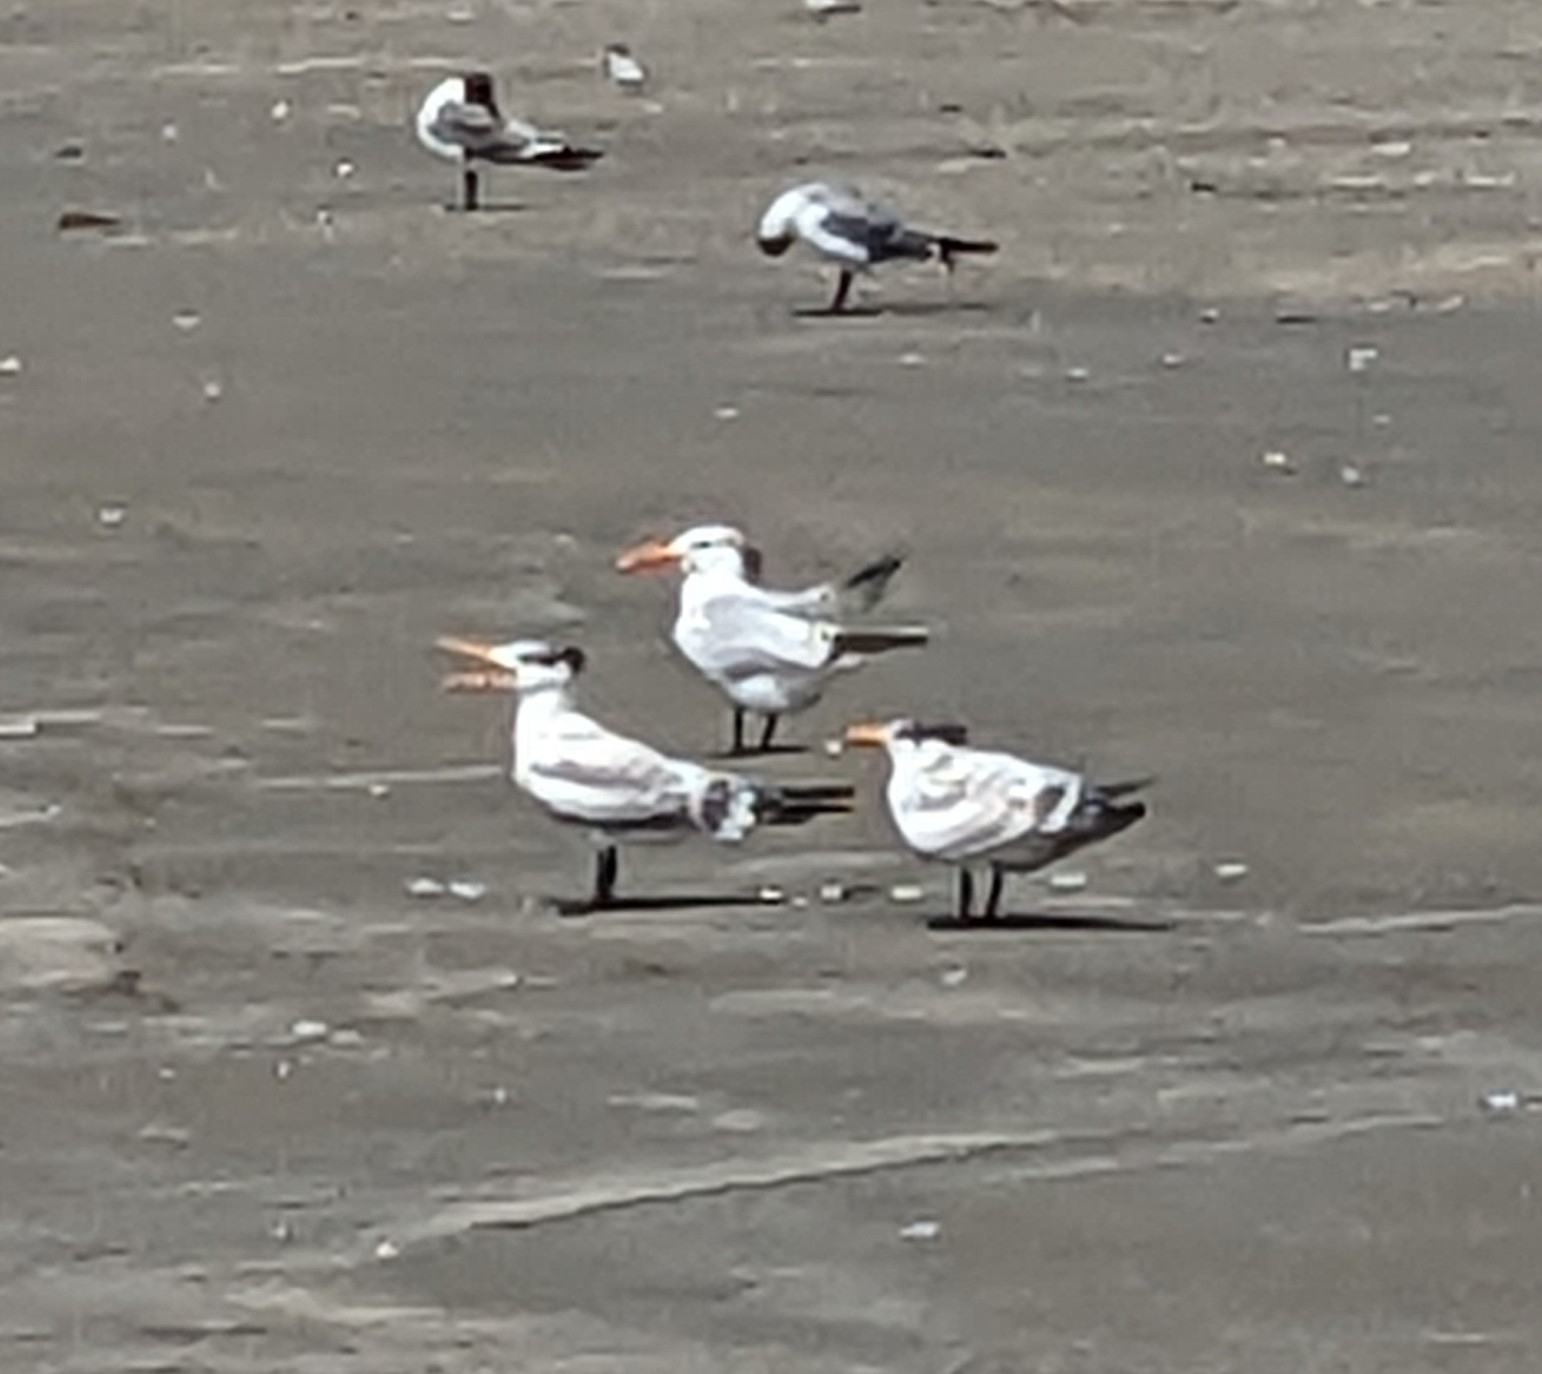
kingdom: Animalia
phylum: Chordata
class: Aves
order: Charadriiformes
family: Laridae
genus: Thalasseus
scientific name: Thalasseus maximus
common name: Royal tern
